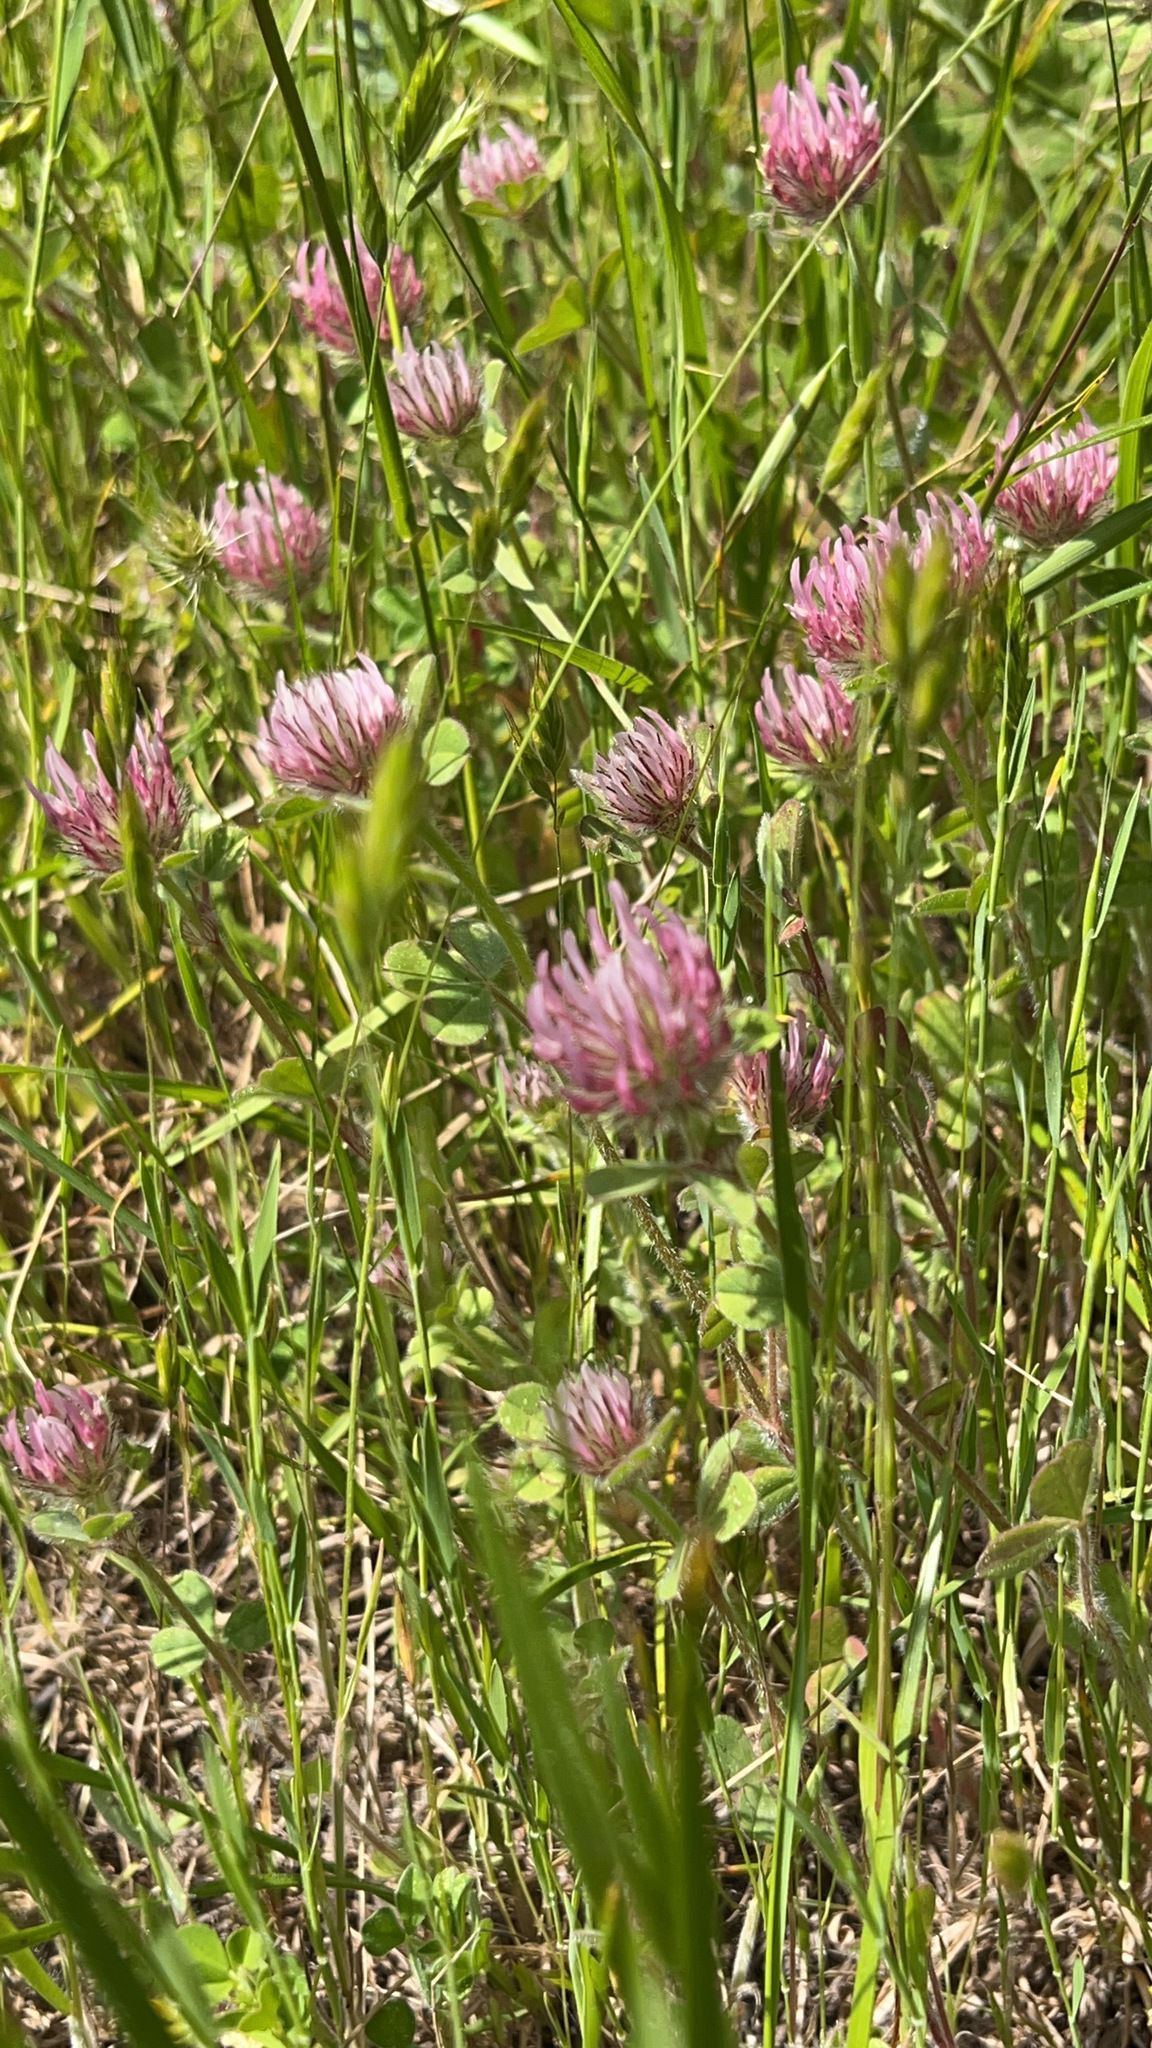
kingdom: Plantae
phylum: Tracheophyta
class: Magnoliopsida
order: Fabales
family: Fabaceae
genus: Trifolium
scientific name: Trifolium hirtum
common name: Rose clover
